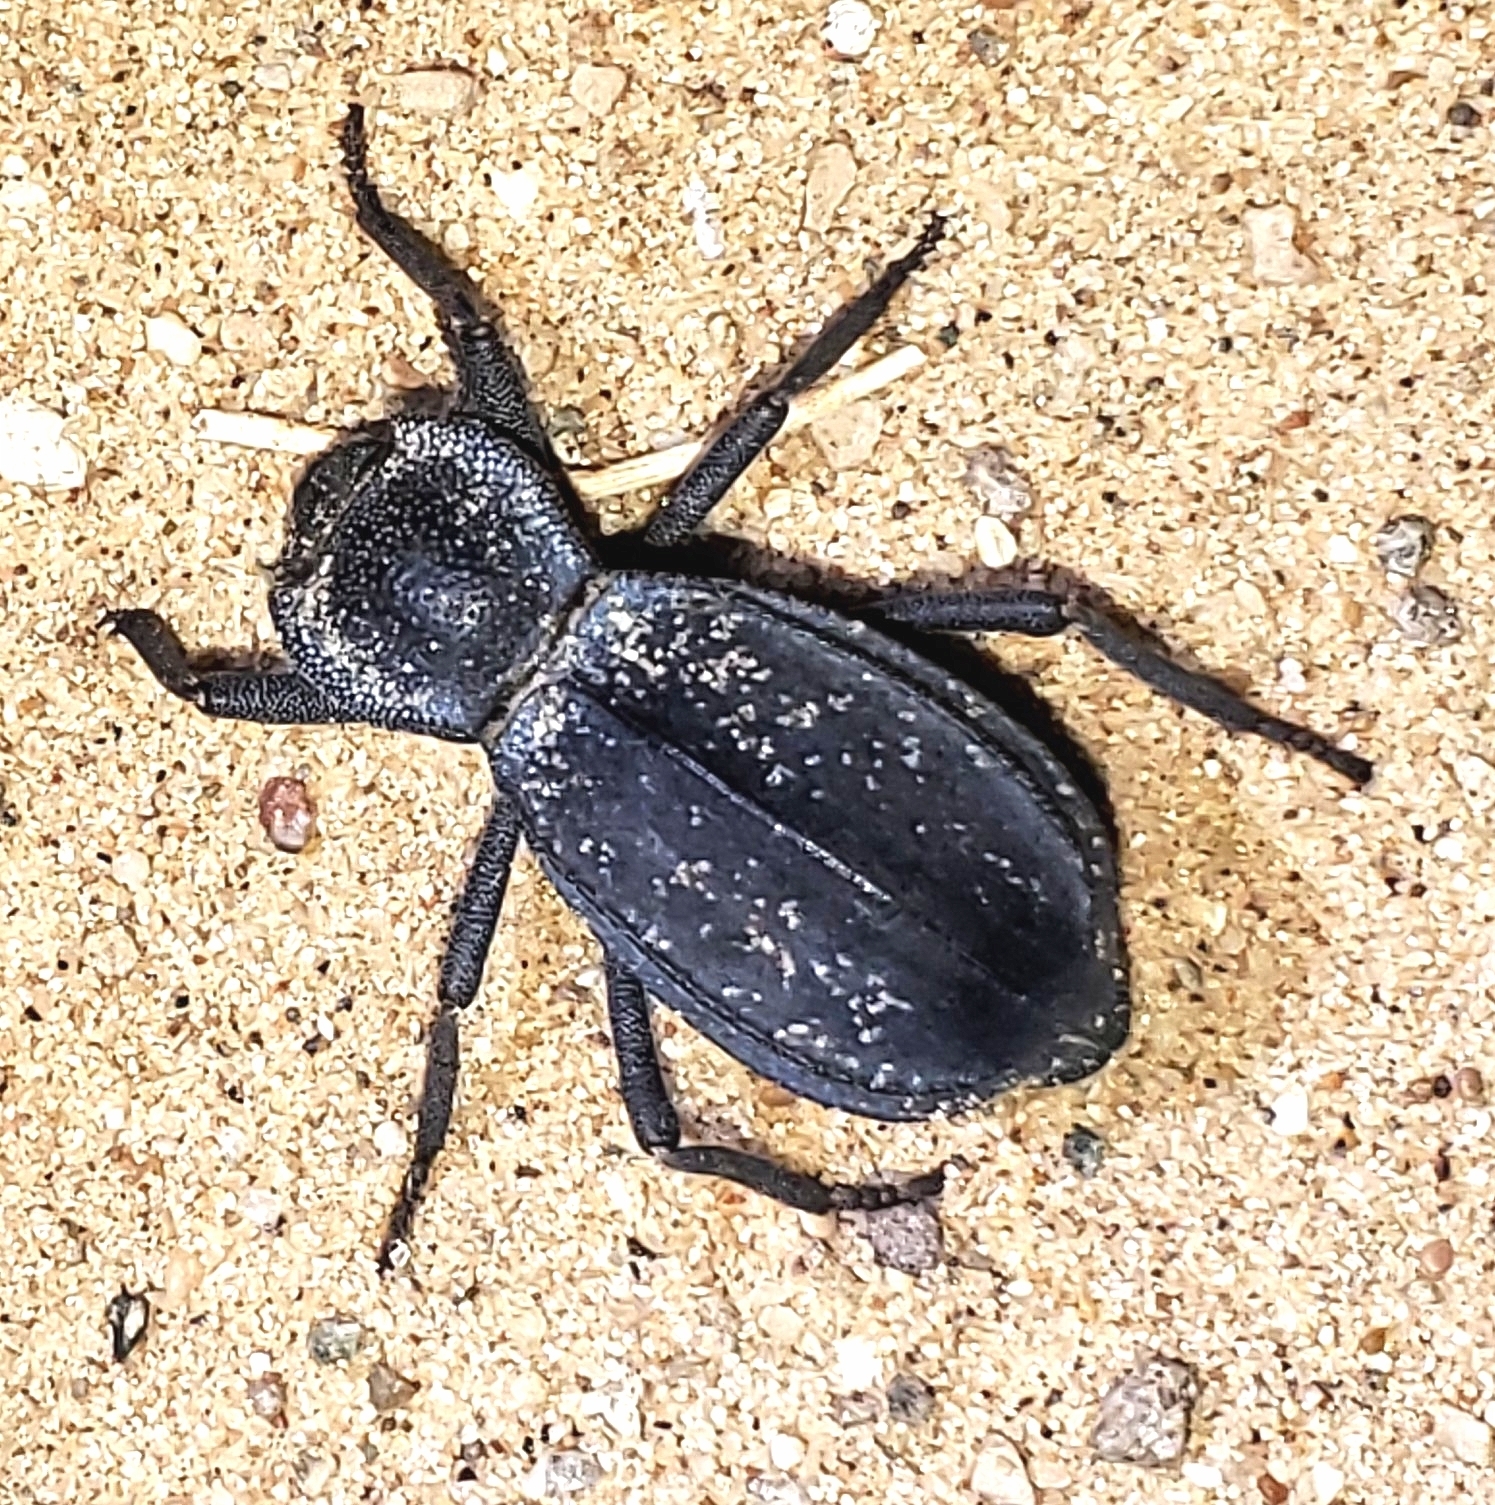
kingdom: Animalia
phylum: Arthropoda
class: Insecta
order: Coleoptera
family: Tenebrionidae
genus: Stenomorpha
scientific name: Stenomorpha confluens
